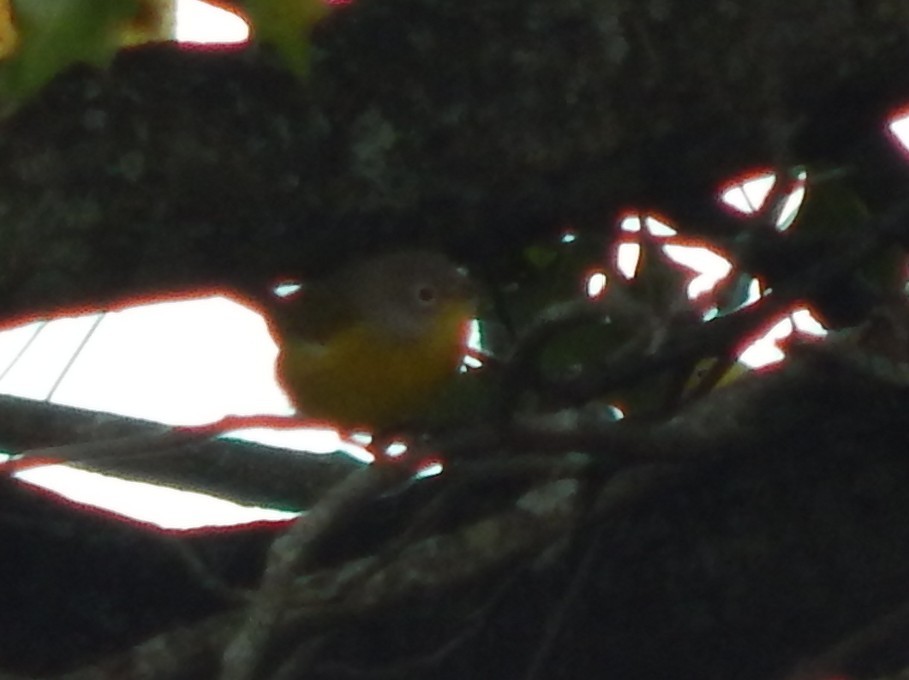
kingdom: Animalia
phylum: Chordata
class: Aves
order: Passeriformes
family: Parulidae
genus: Leiothlypis
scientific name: Leiothlypis ruficapilla
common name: Nashville warbler
